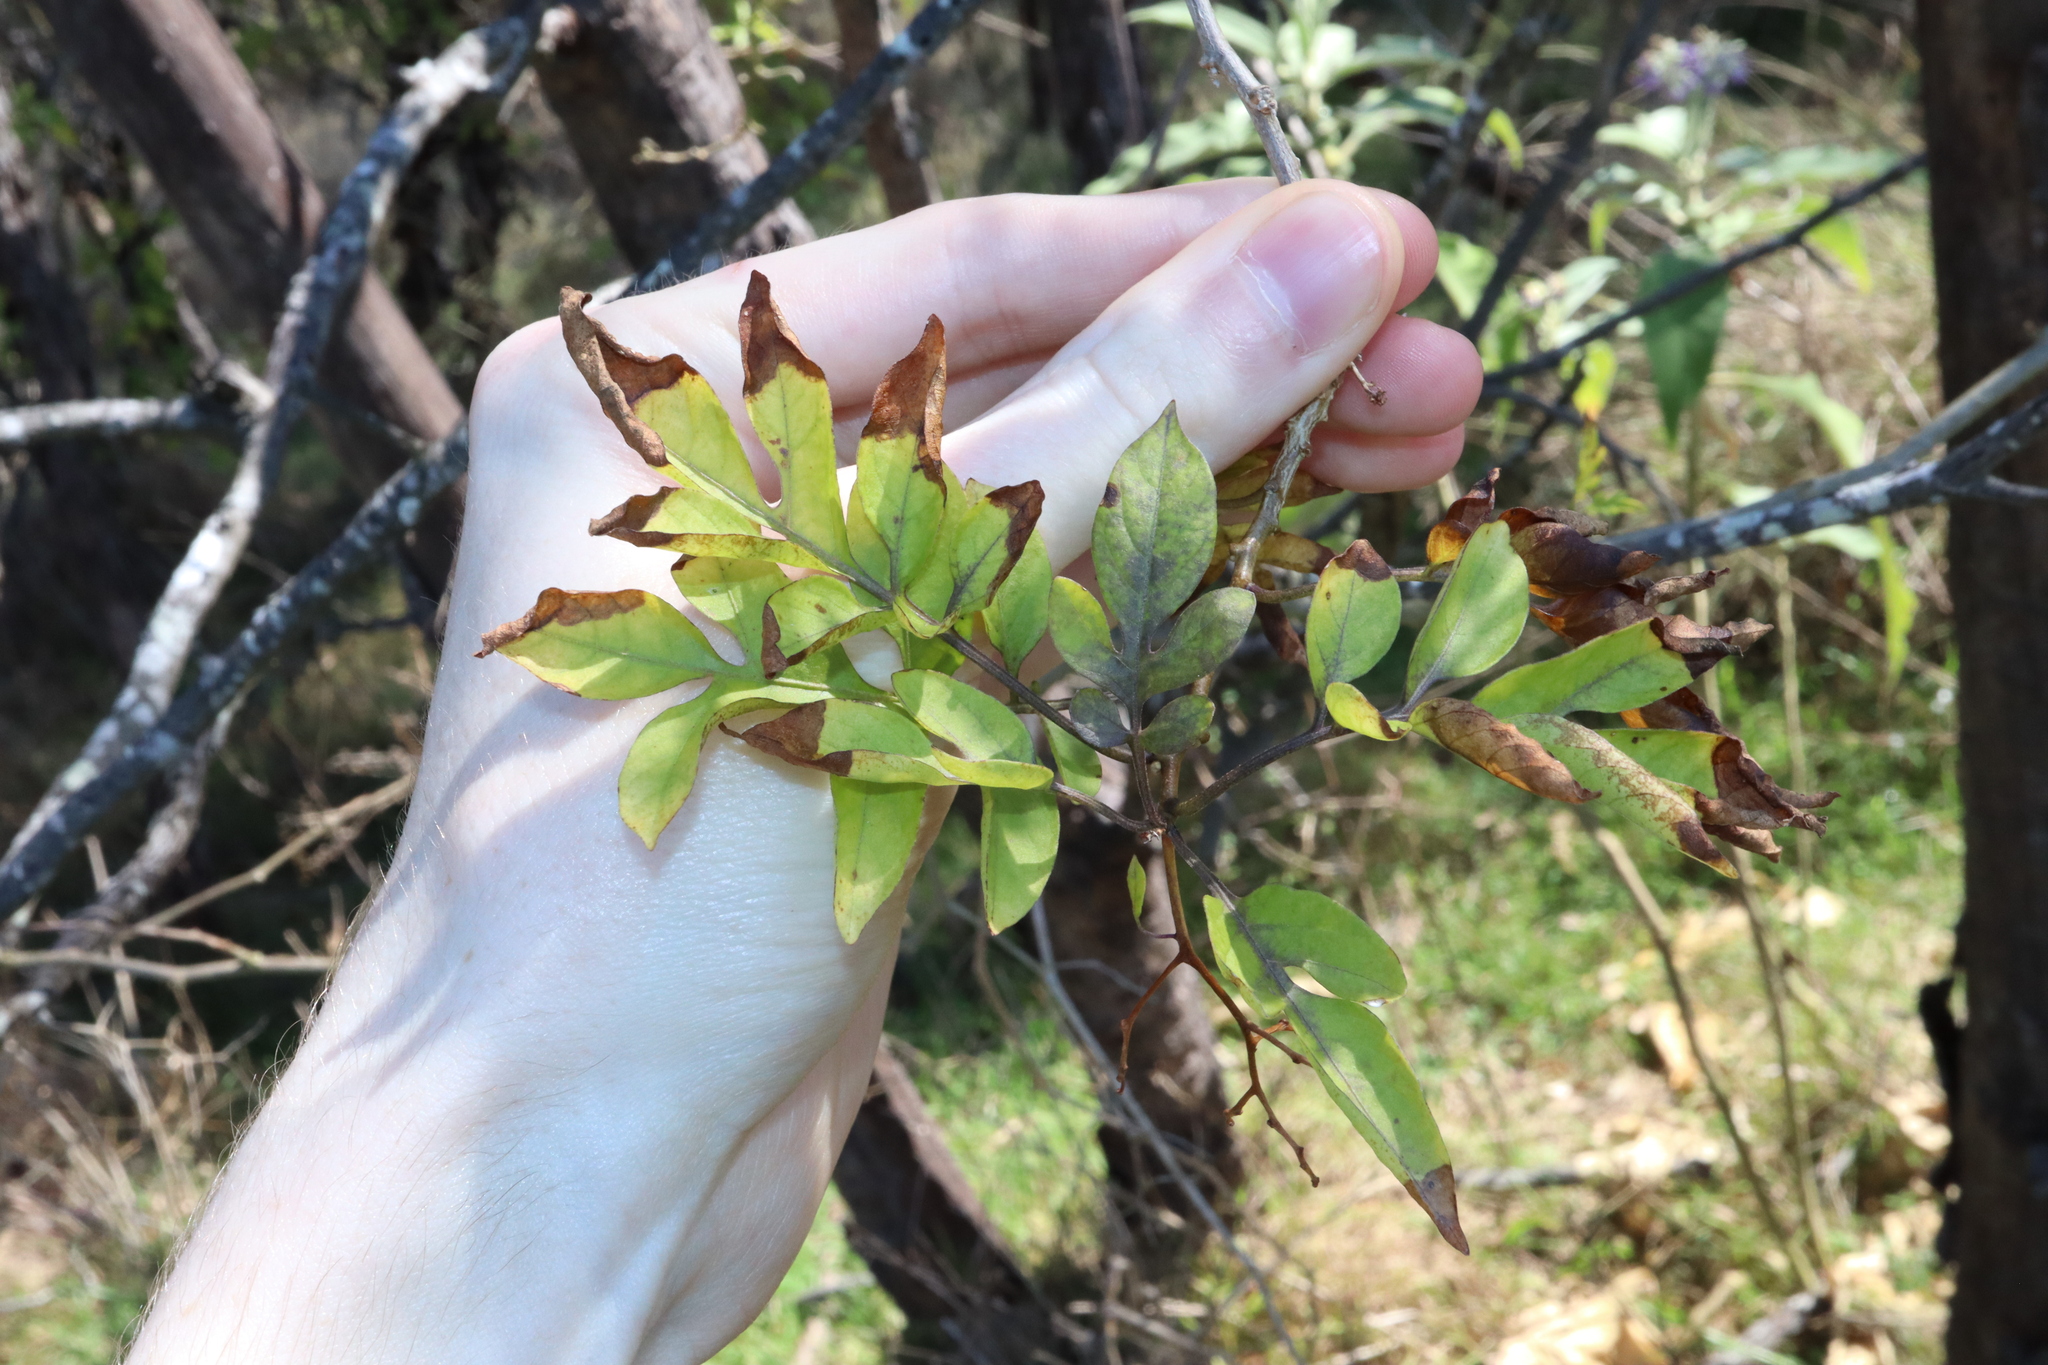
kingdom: Plantae
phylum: Tracheophyta
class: Magnoliopsida
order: Solanales
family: Solanaceae
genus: Solanum
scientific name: Solanum seaforthianum
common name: Brazilian nightshade
